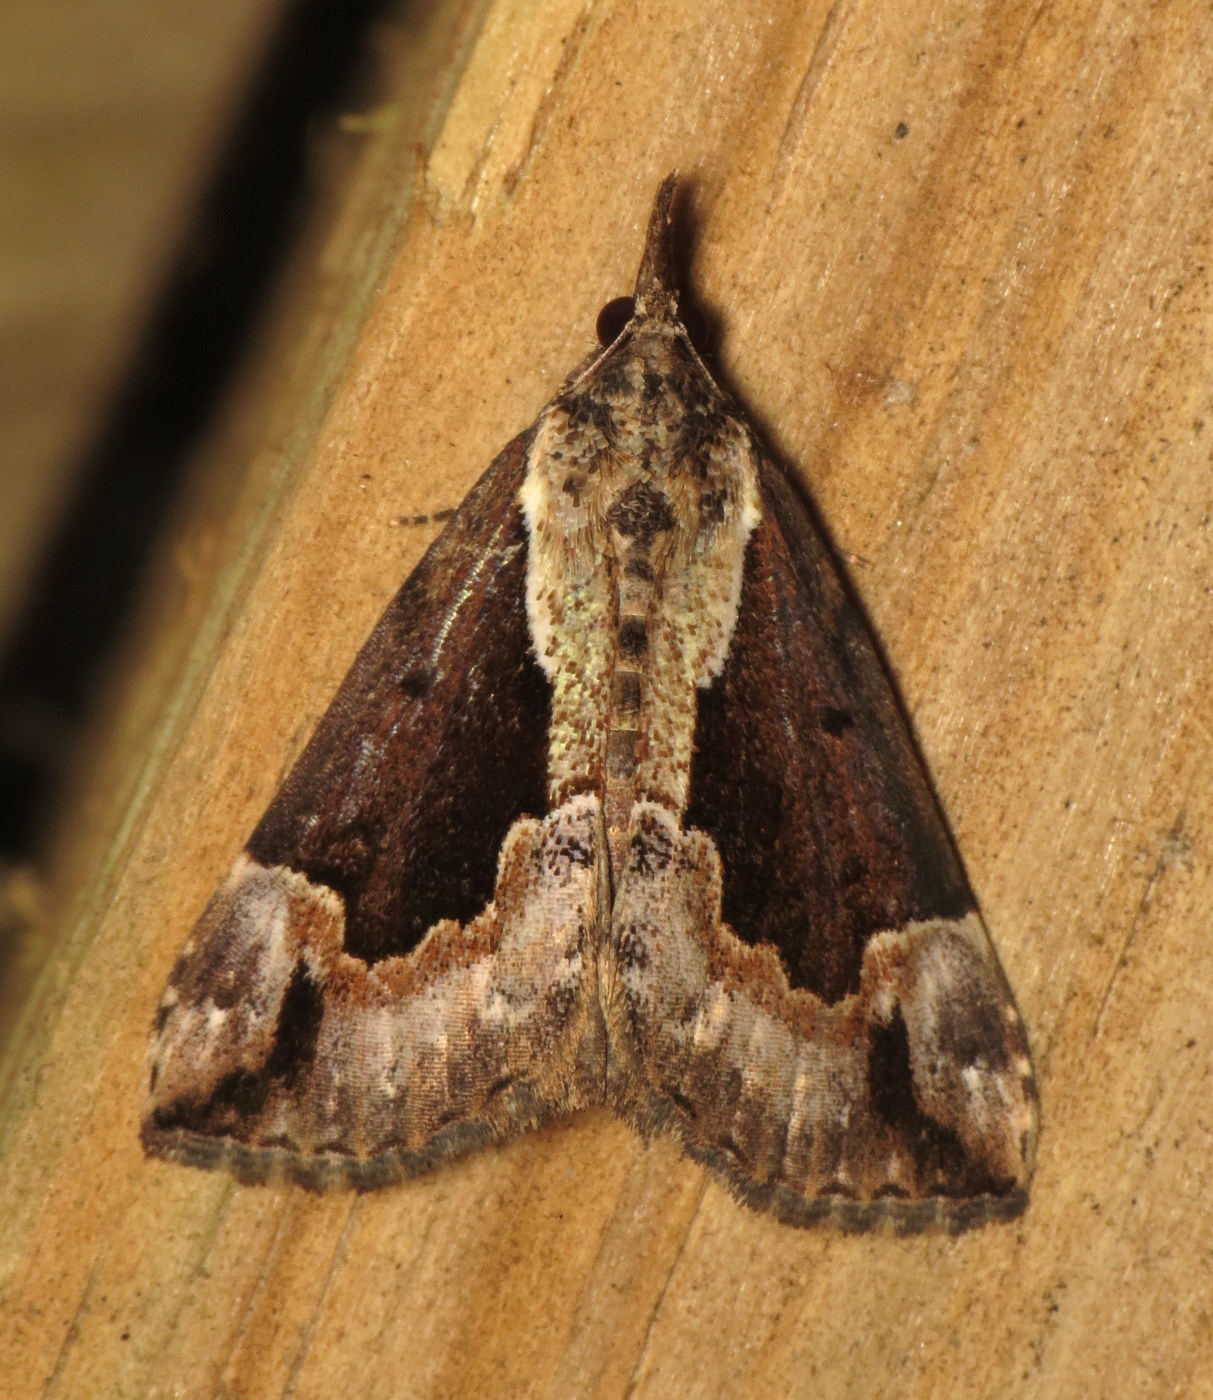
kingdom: Animalia
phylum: Arthropoda
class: Insecta
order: Lepidoptera
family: Erebidae
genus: Hypena
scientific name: Hypena baltimoralis
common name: Baltimore snout
